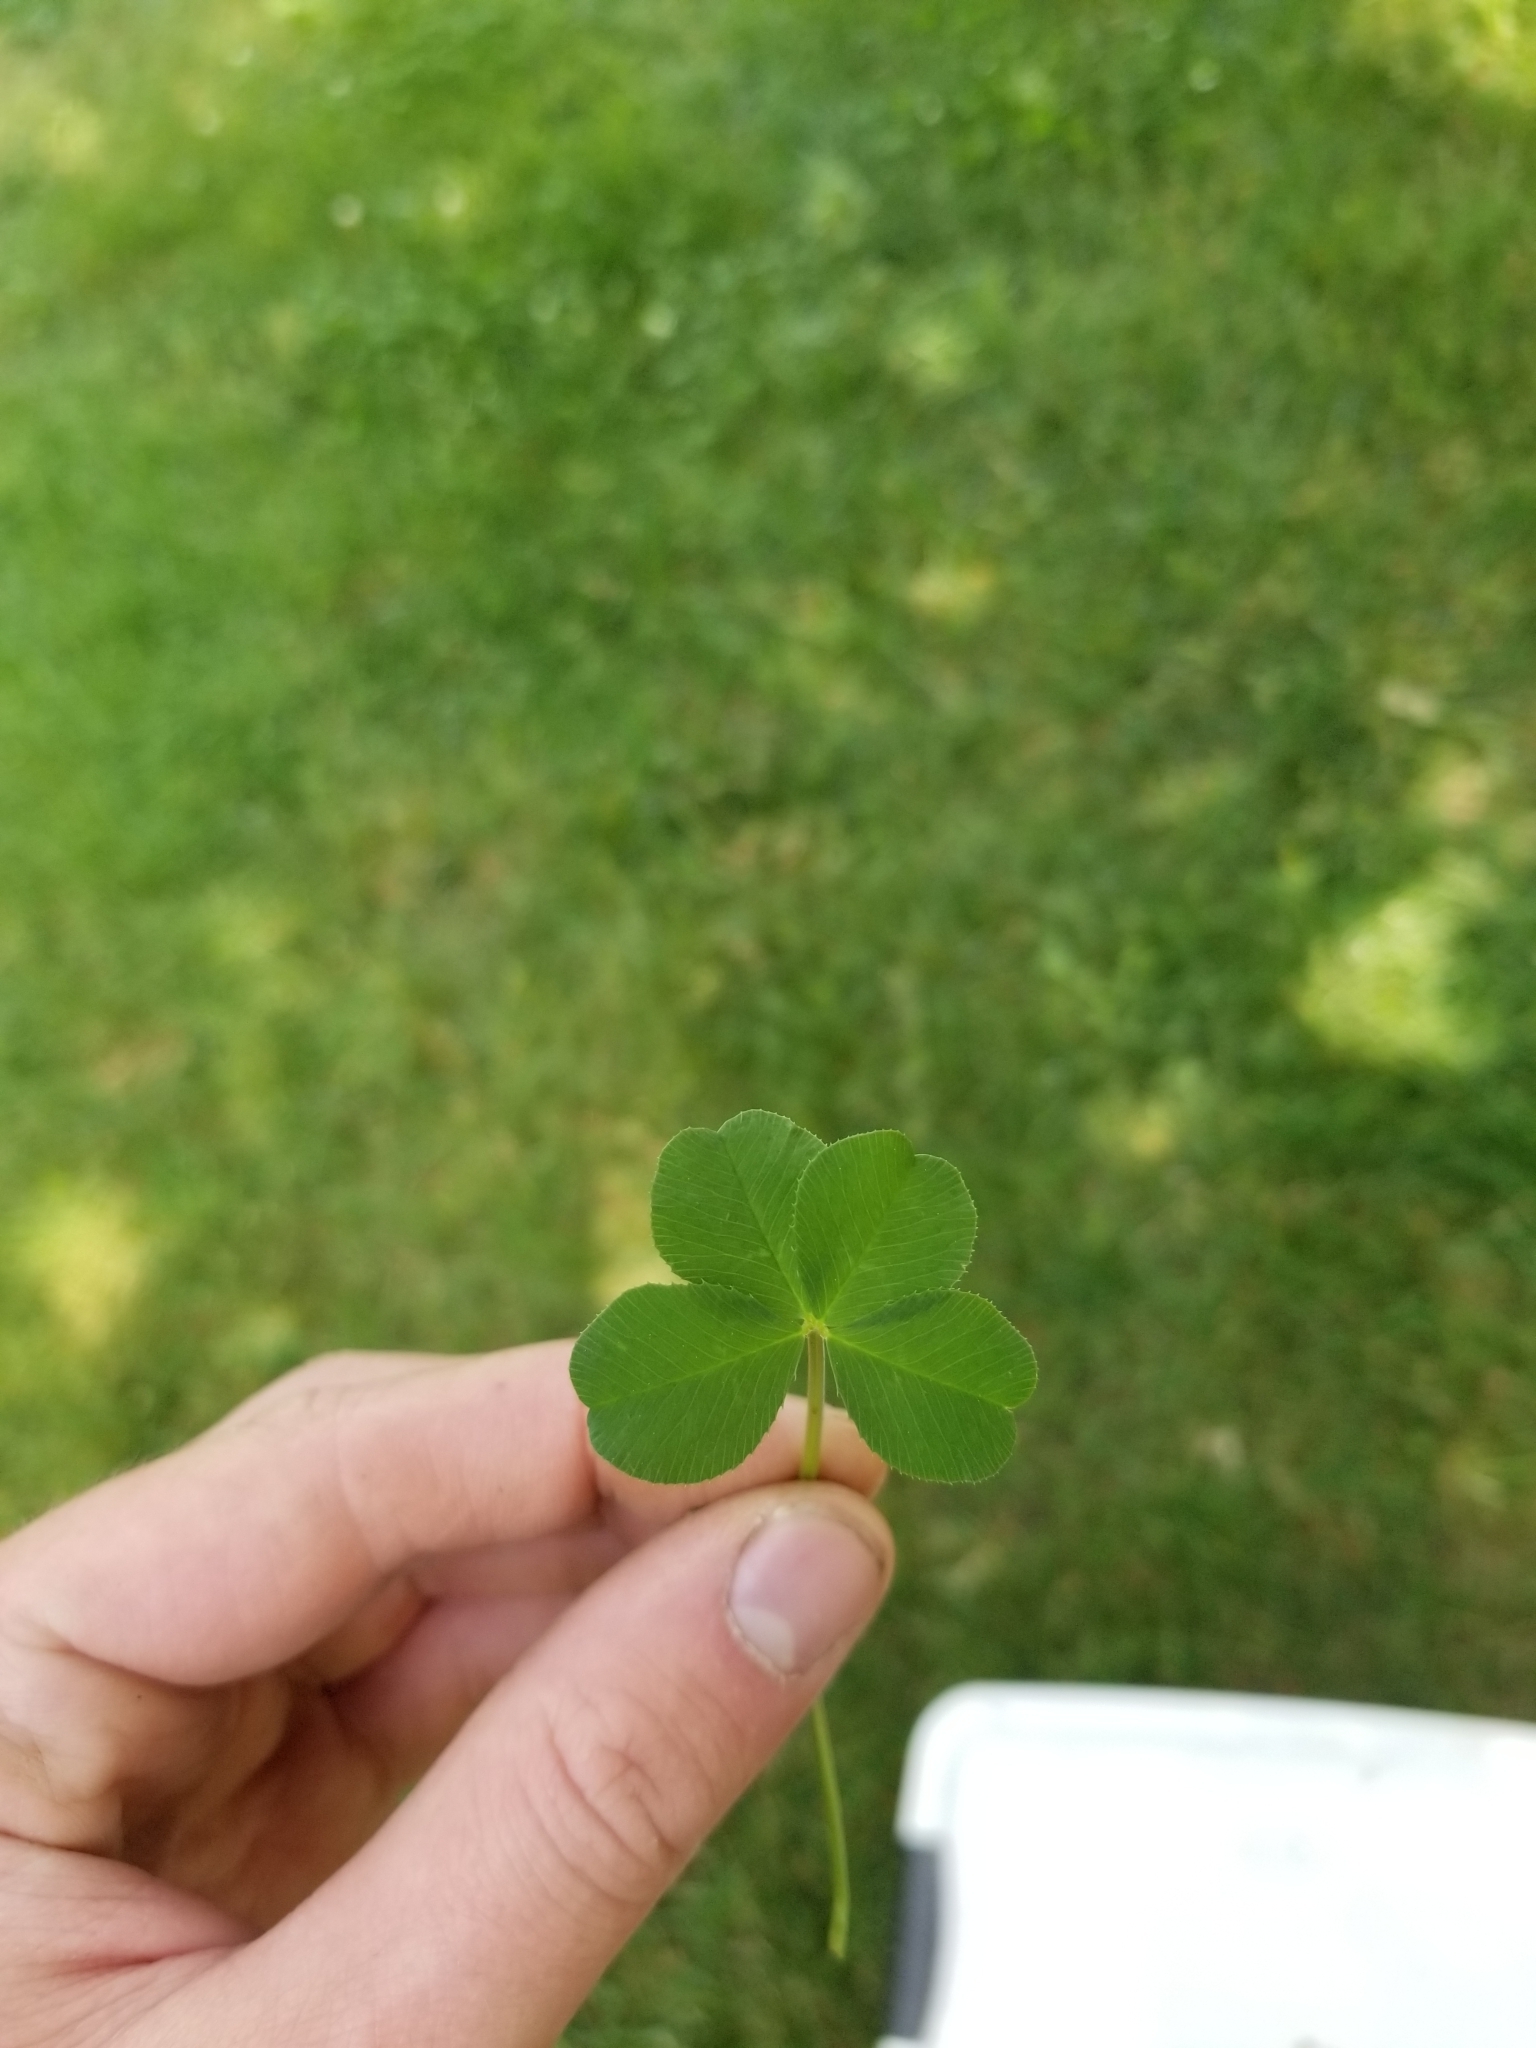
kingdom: Plantae
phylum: Tracheophyta
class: Magnoliopsida
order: Fabales
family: Fabaceae
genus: Trifolium
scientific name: Trifolium repens
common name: White clover
